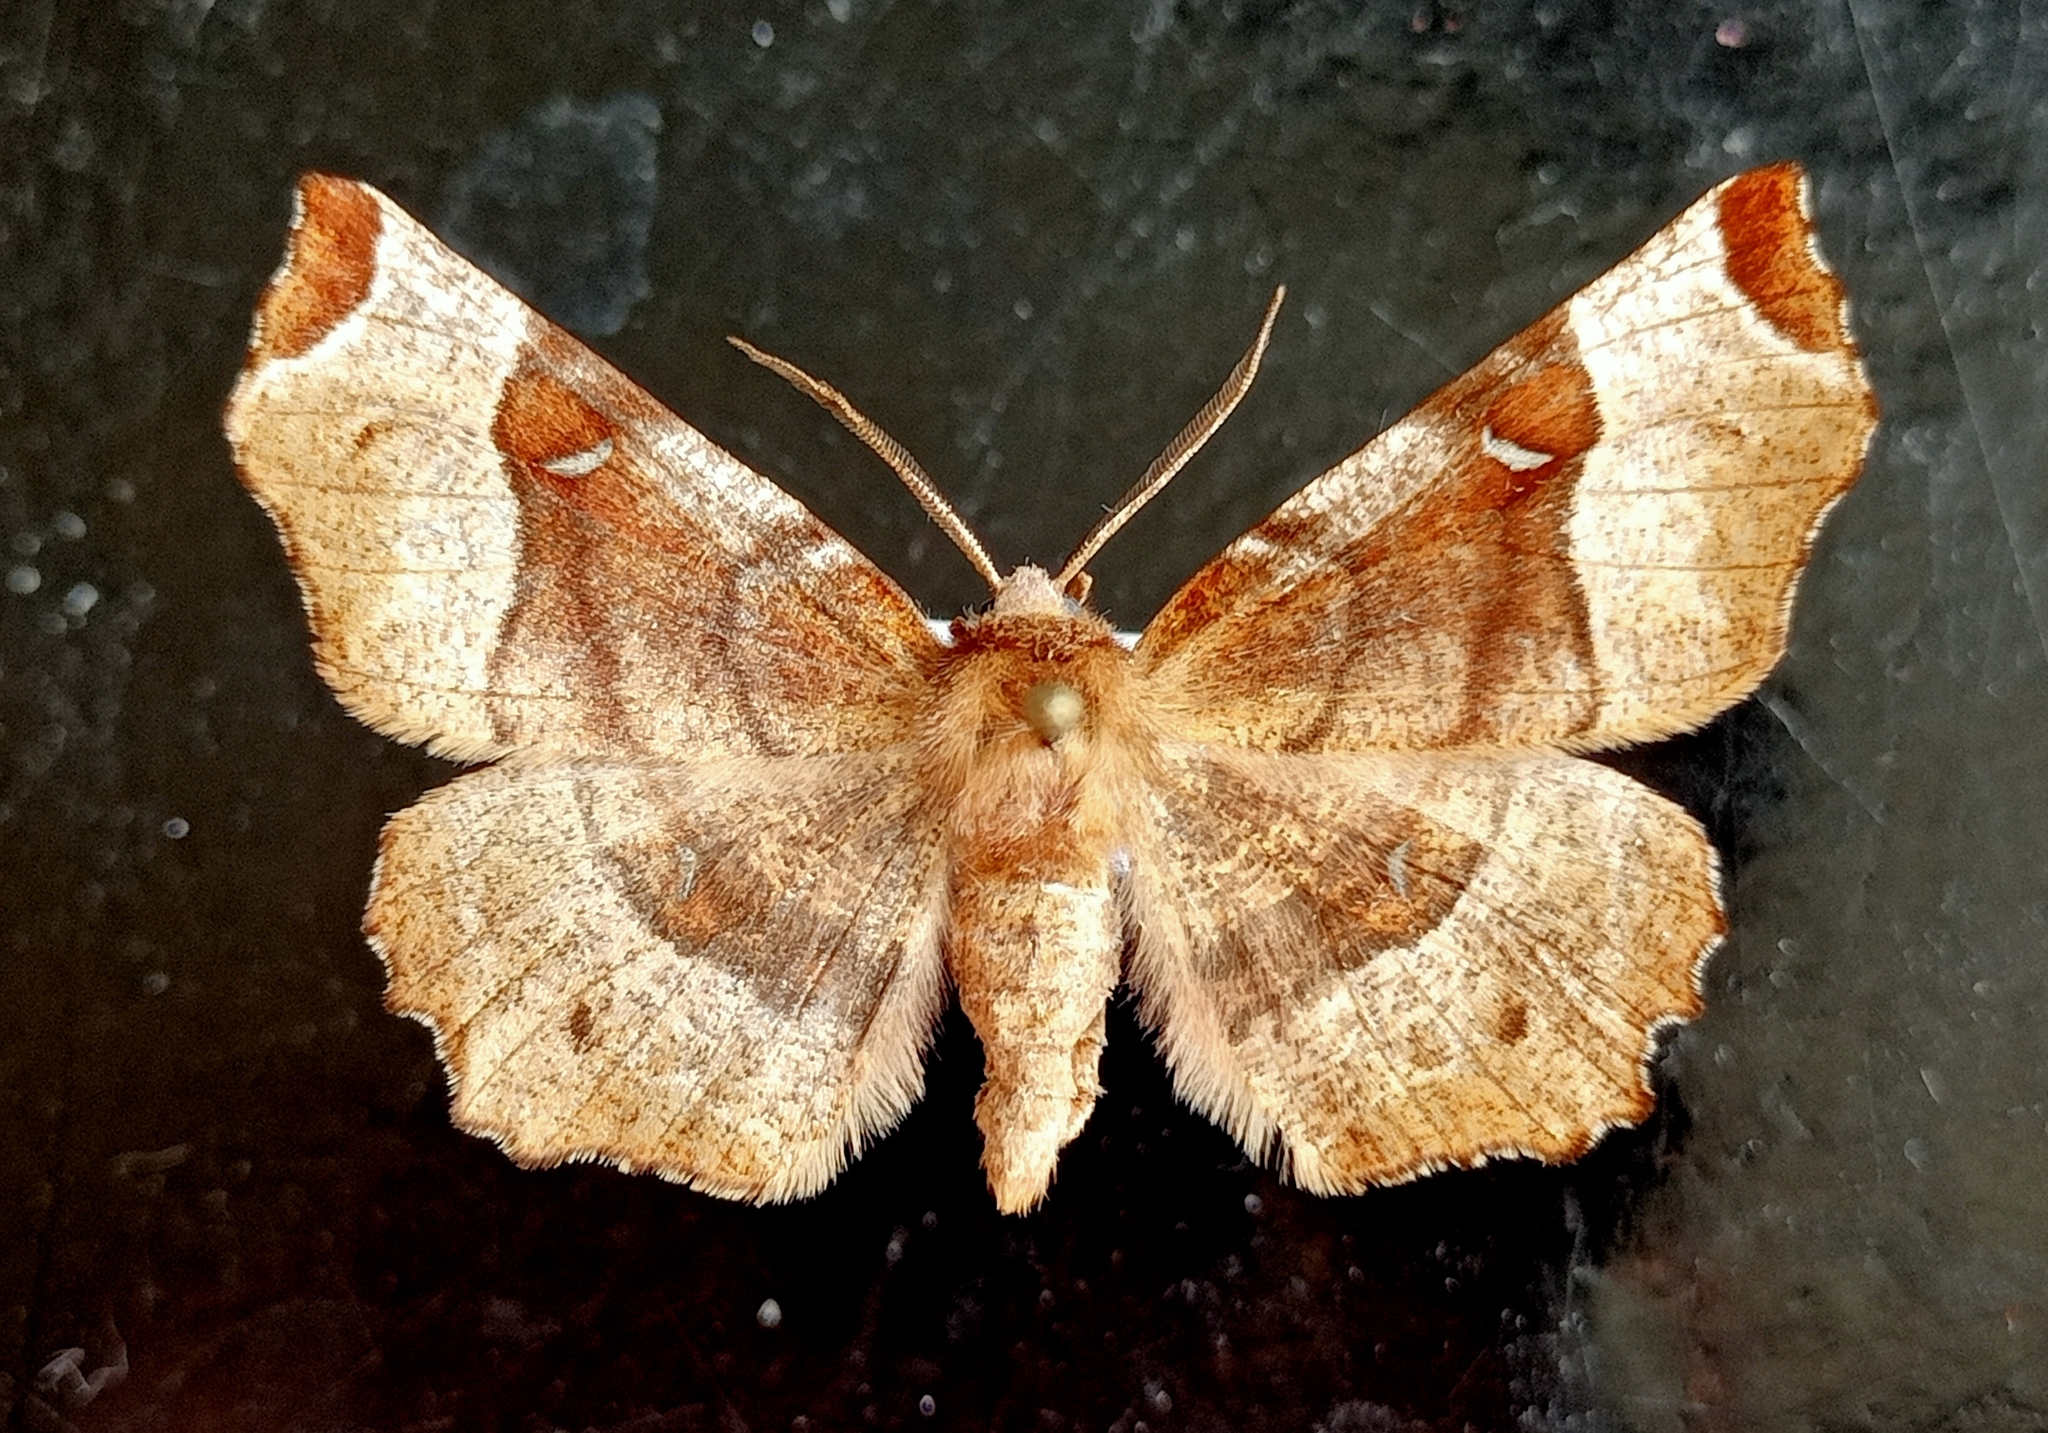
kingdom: Animalia
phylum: Arthropoda
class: Insecta
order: Lepidoptera
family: Geometridae
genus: Selenia
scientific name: Selenia tetralunaria
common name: Purple thorn
